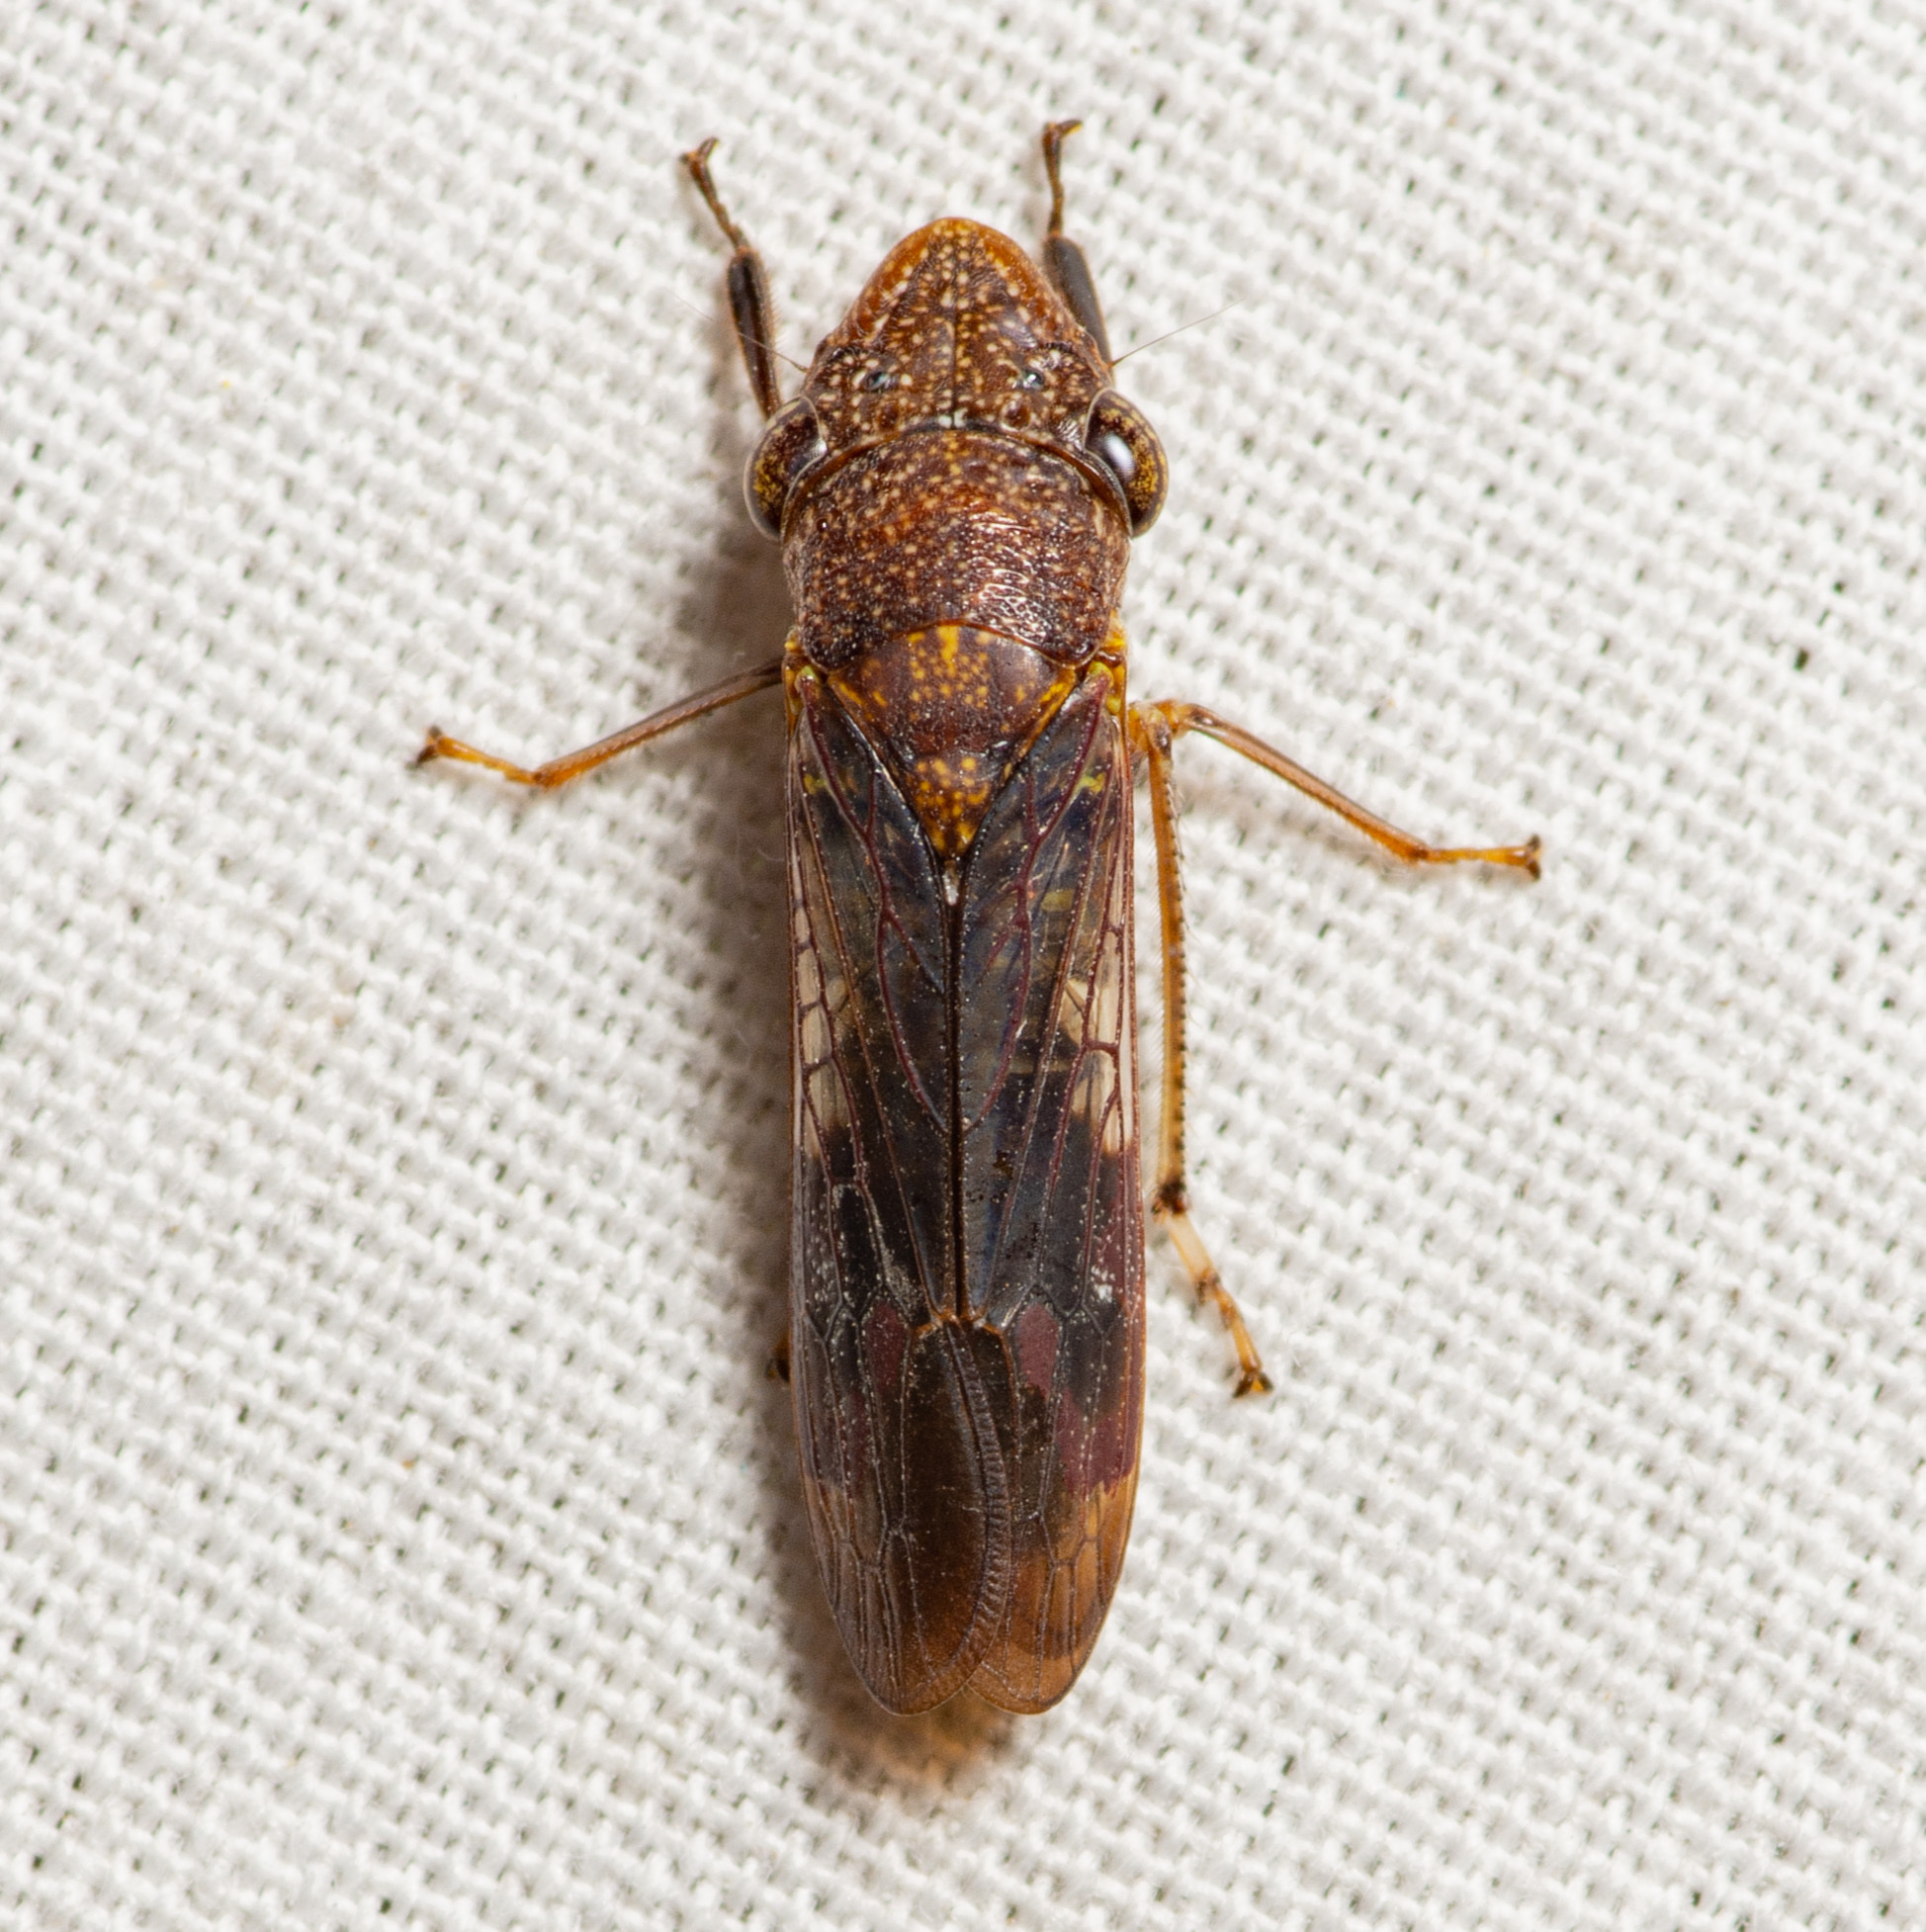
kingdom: Animalia
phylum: Arthropoda
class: Insecta
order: Hemiptera
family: Cicadellidae
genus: Homalodisca
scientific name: Homalodisca vitripennis
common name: Glassy-winged sharpshooter
